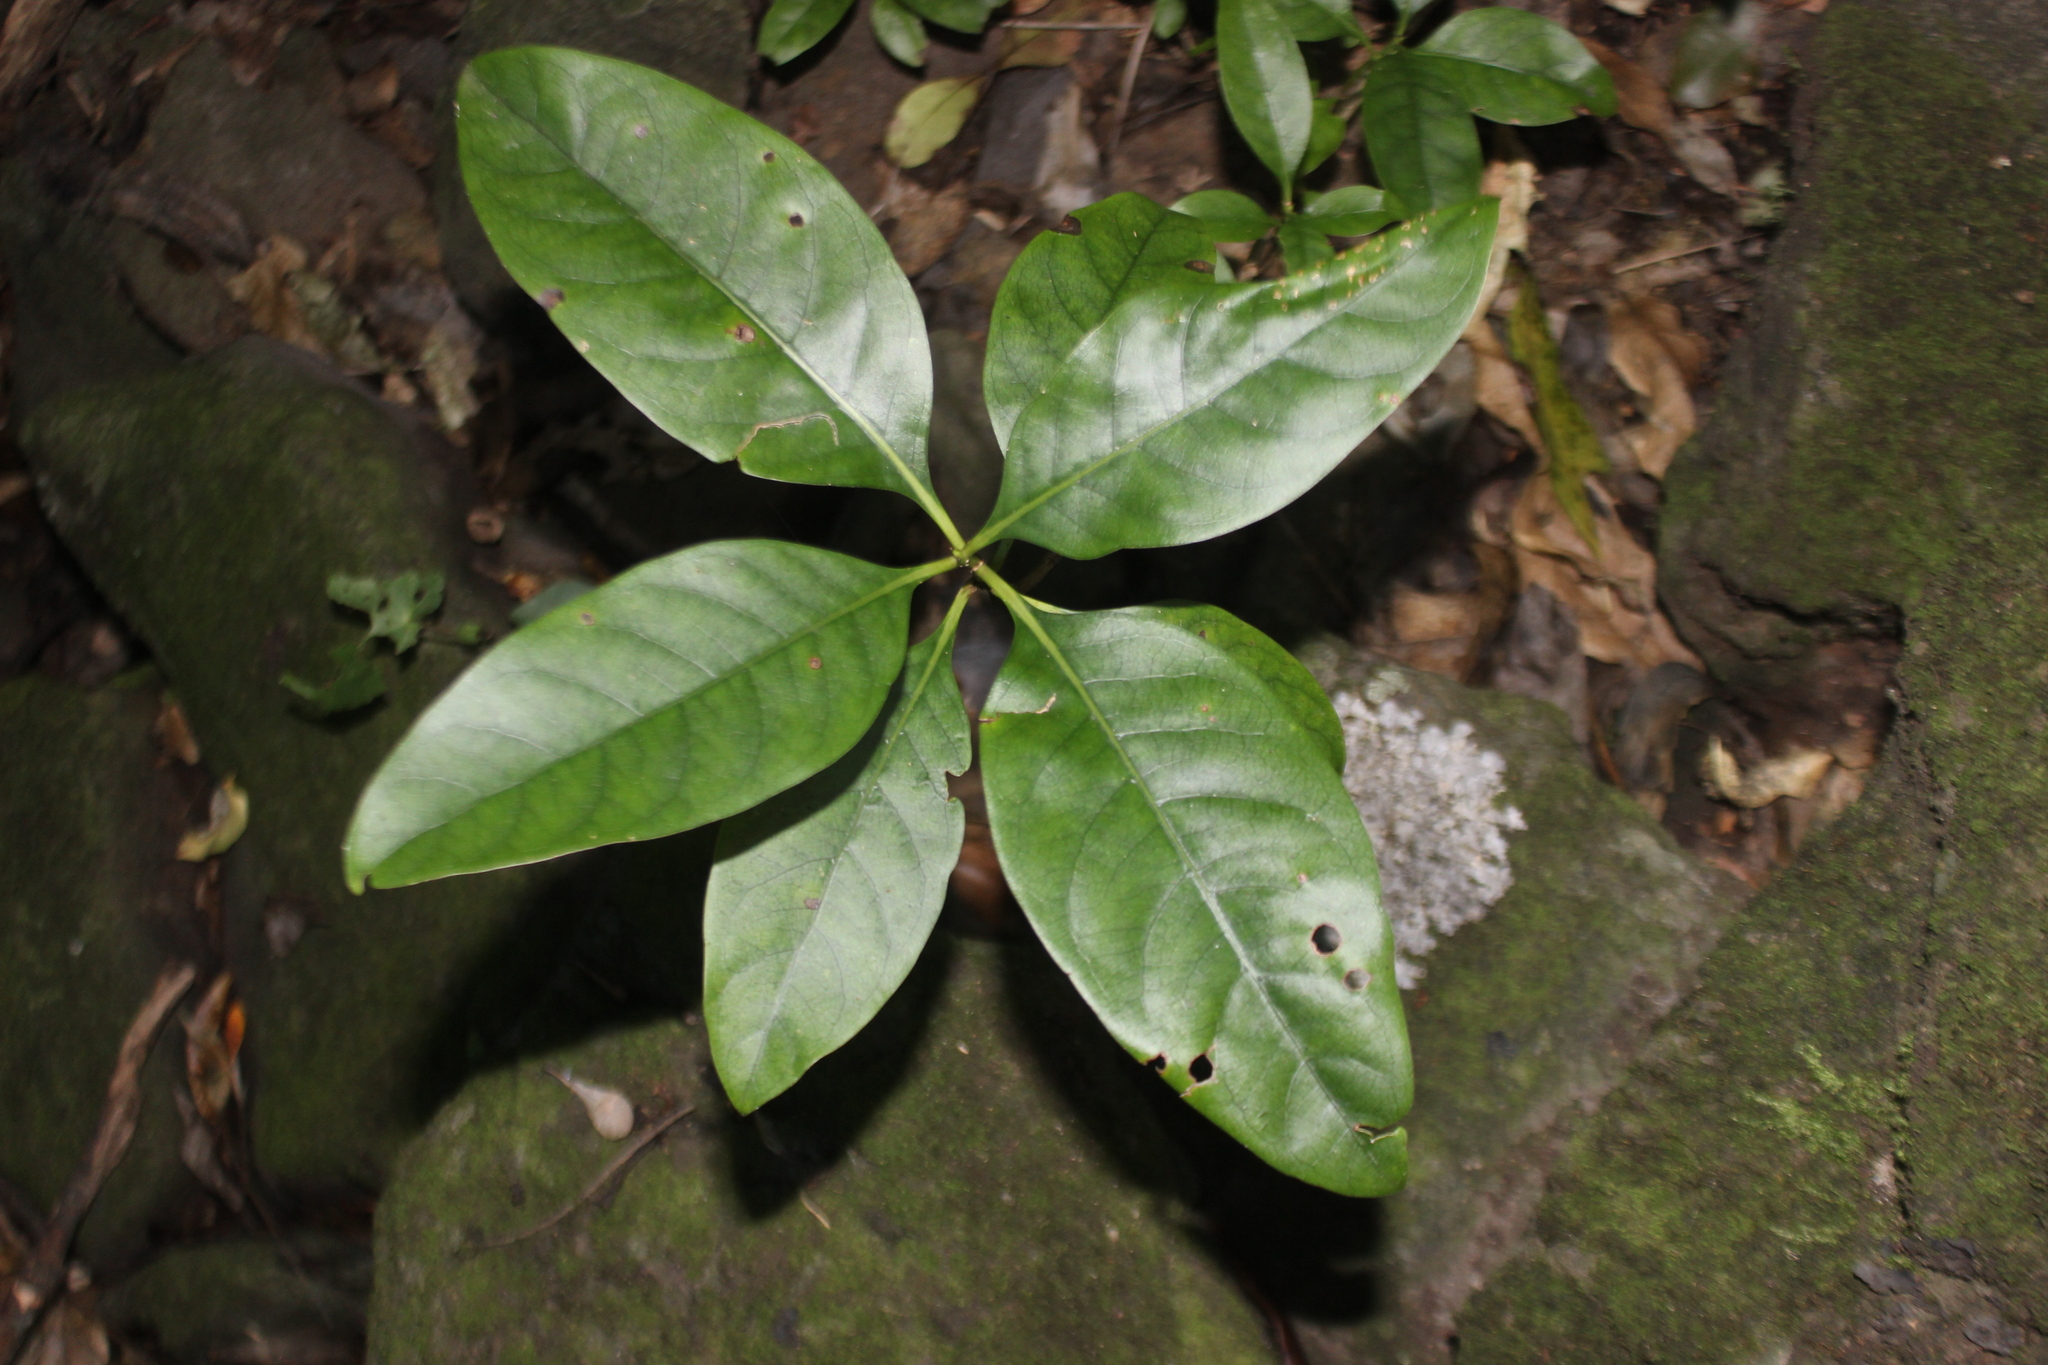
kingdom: Plantae
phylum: Tracheophyta
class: Magnoliopsida
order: Gentianales
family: Rubiaceae
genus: Coprosma
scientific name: Coprosma macrocarpa
